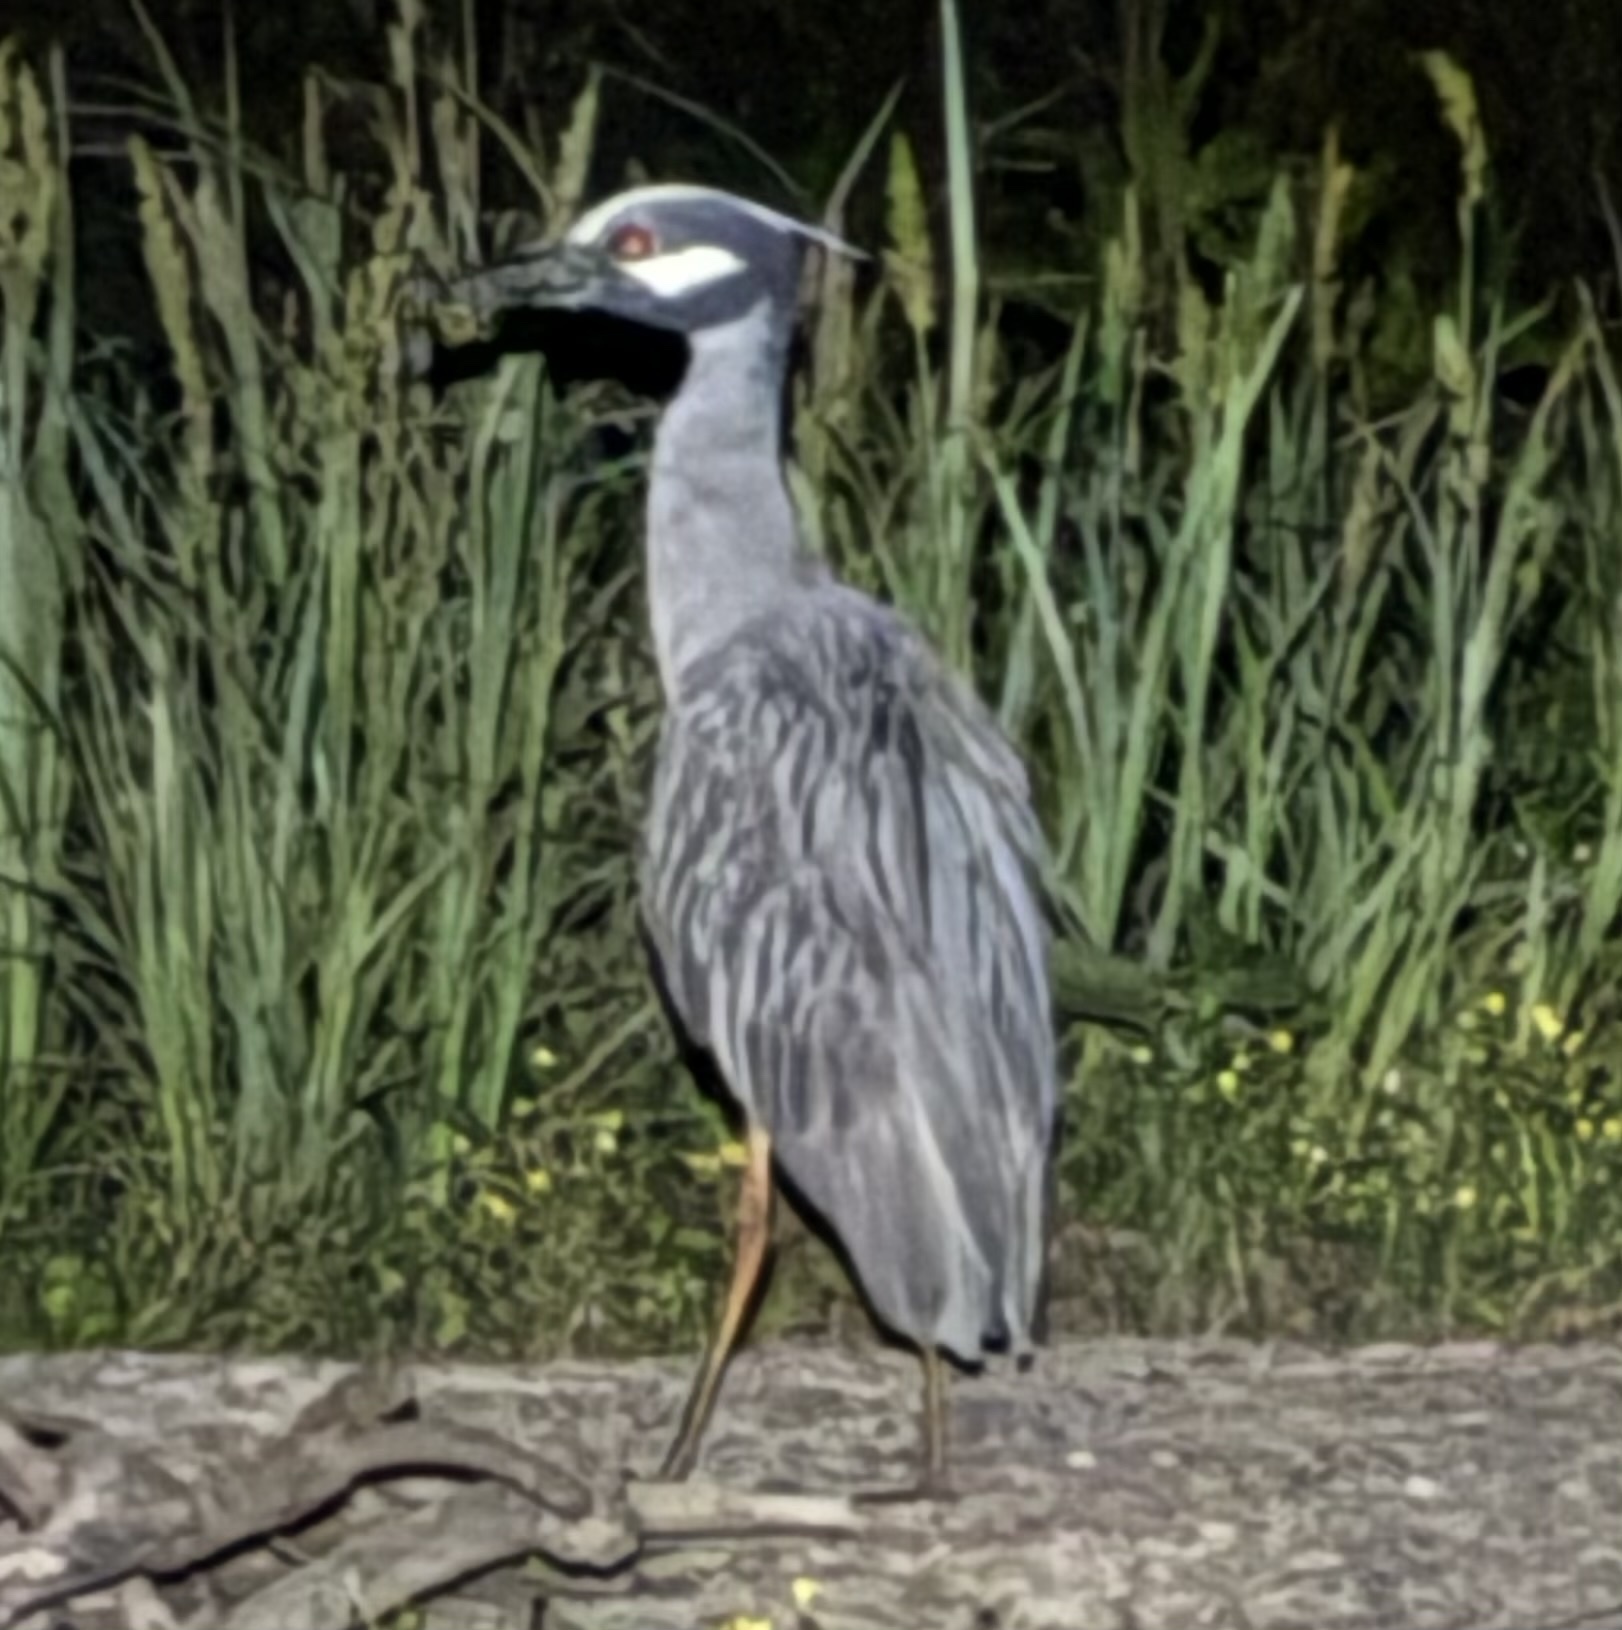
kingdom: Animalia
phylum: Chordata
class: Aves
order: Pelecaniformes
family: Ardeidae
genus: Nyctanassa
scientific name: Nyctanassa violacea
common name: Yellow-crowned night heron
